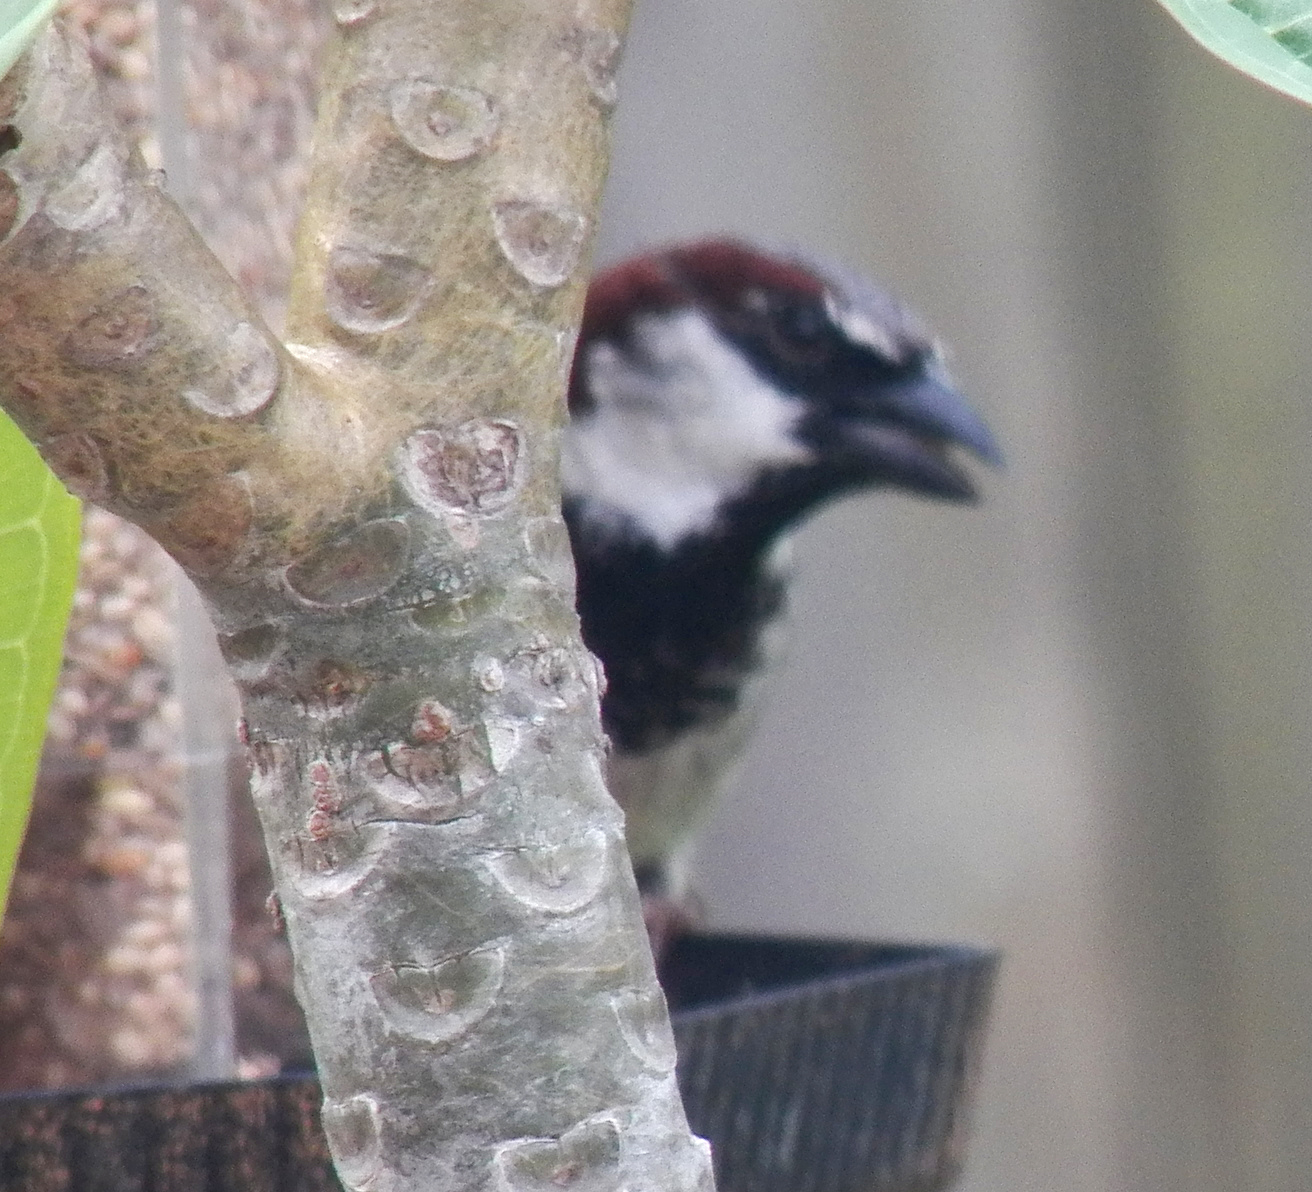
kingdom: Animalia
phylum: Chordata
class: Aves
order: Passeriformes
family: Passeridae
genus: Passer
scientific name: Passer domesticus
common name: House sparrow
